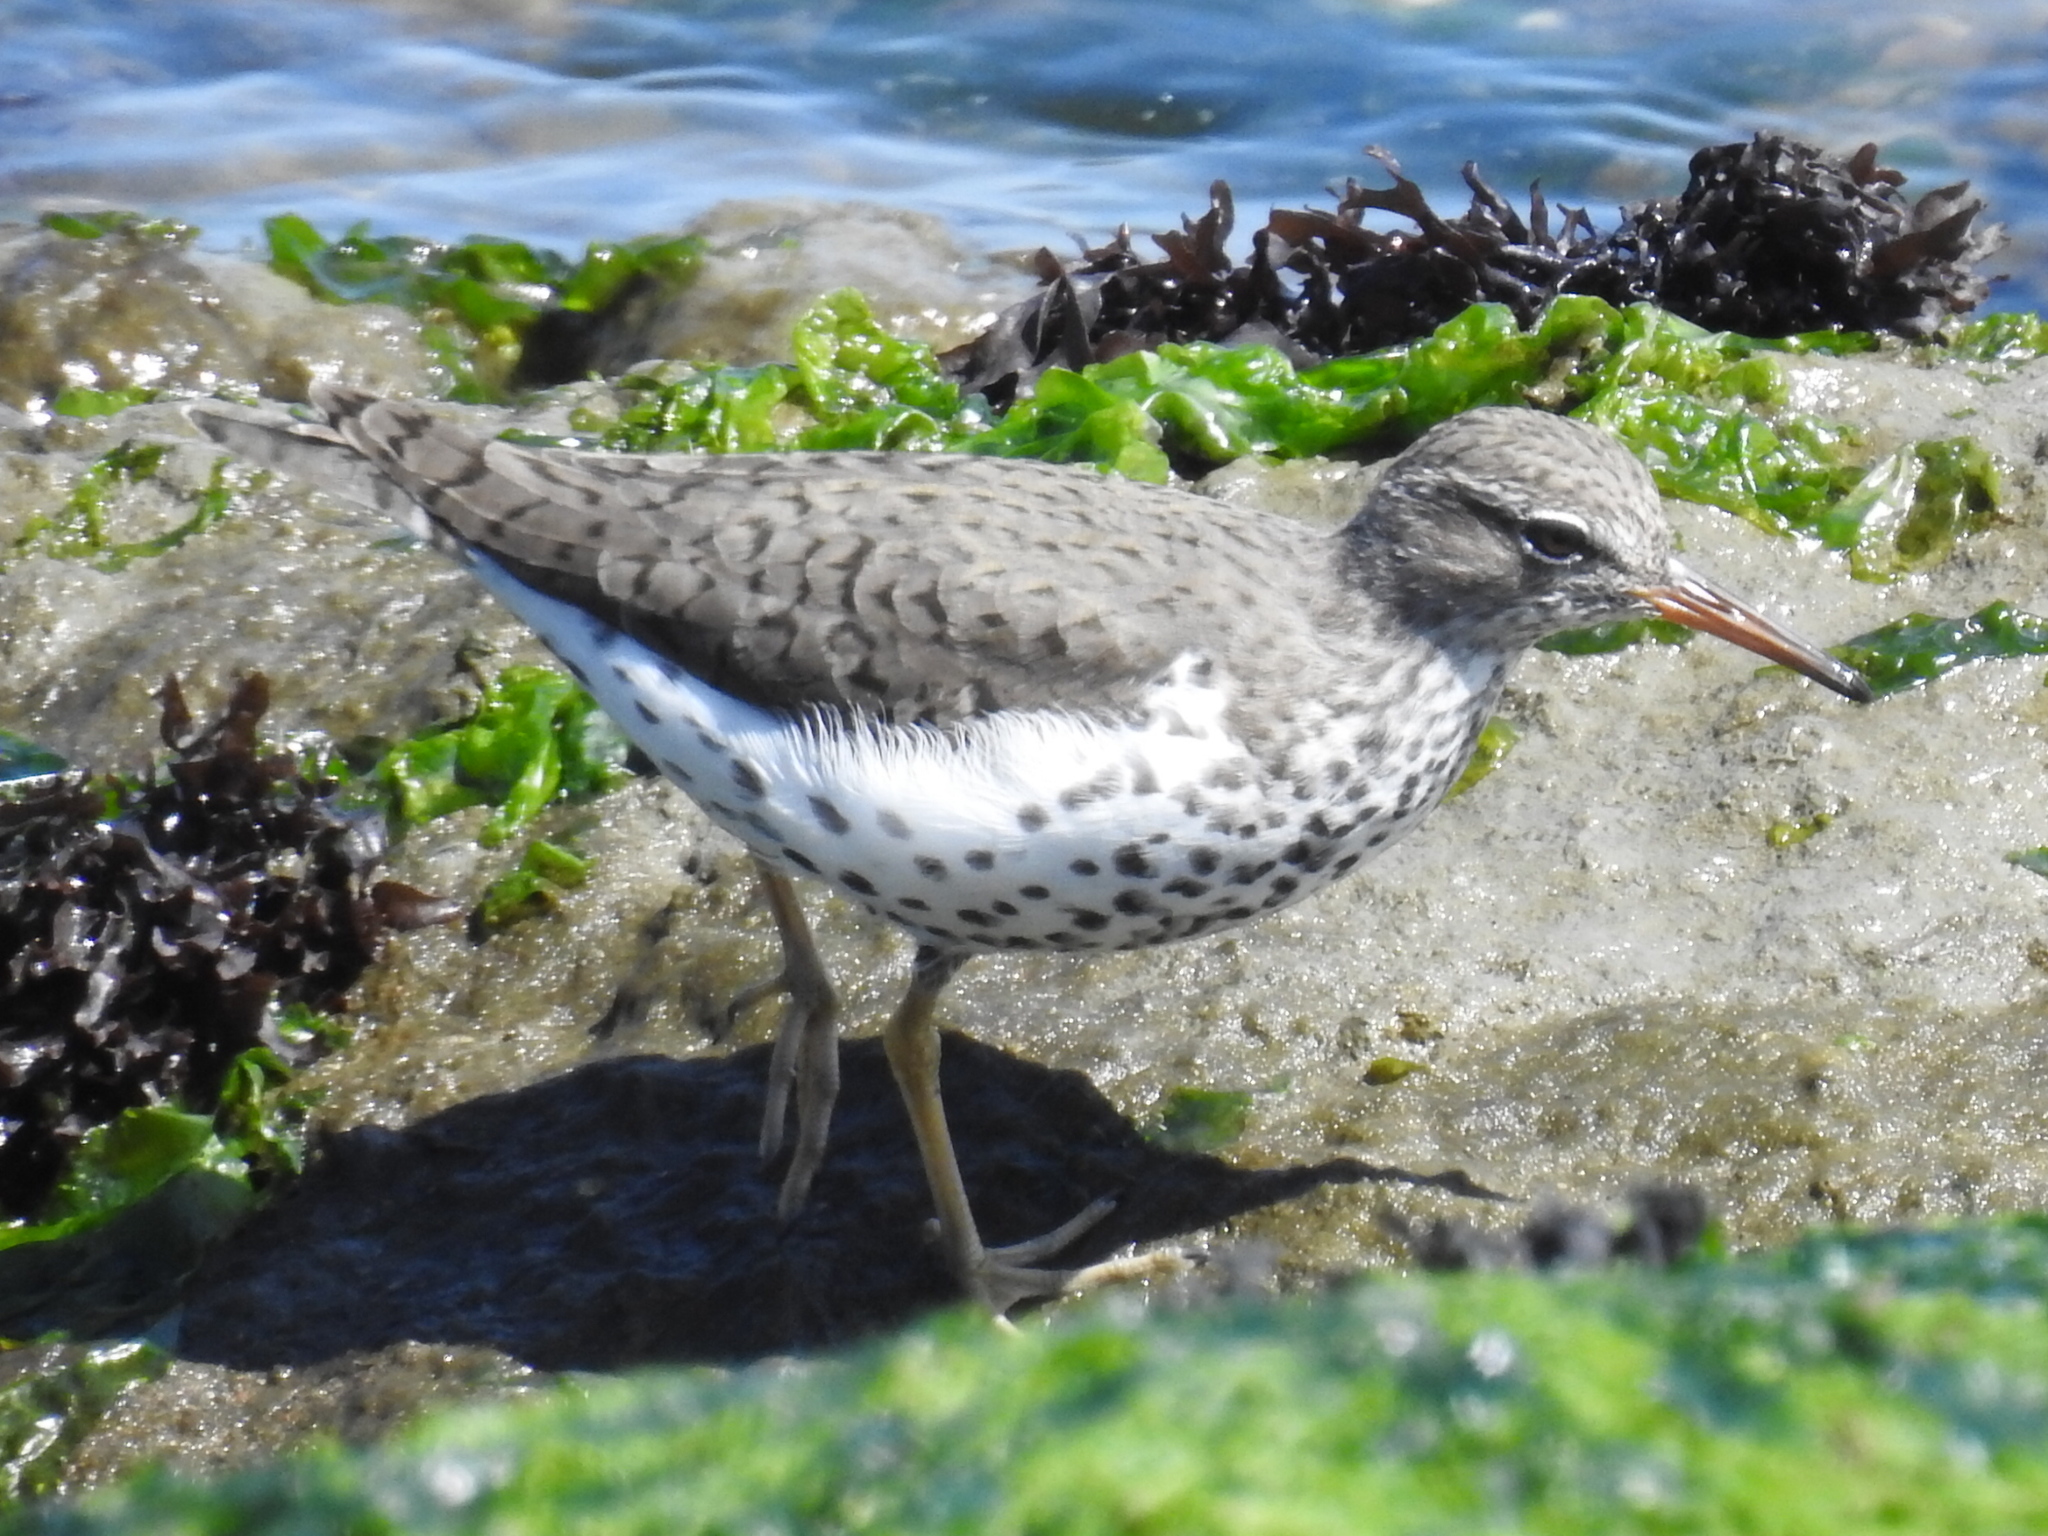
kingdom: Animalia
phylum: Chordata
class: Aves
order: Charadriiformes
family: Scolopacidae
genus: Actitis
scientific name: Actitis macularius
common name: Spotted sandpiper
